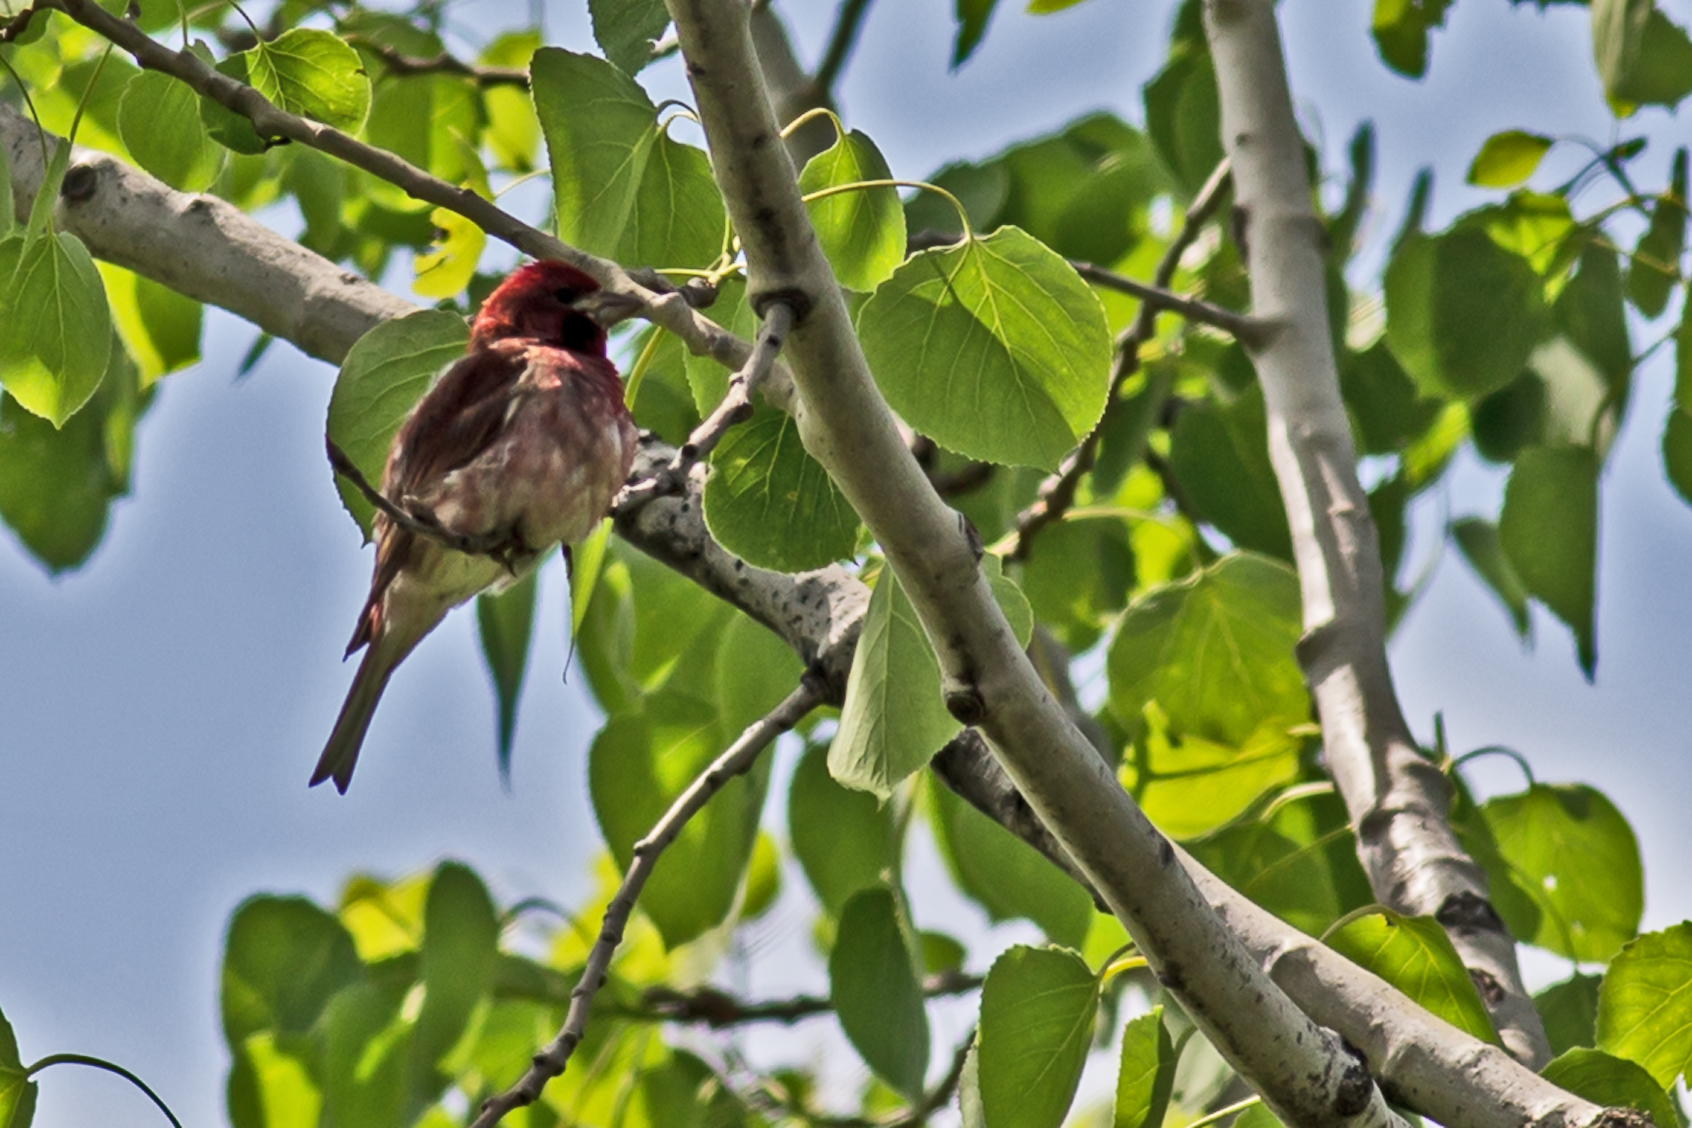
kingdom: Animalia
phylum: Chordata
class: Aves
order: Passeriformes
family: Fringillidae
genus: Haemorhous
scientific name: Haemorhous purpureus
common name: Purple finch
